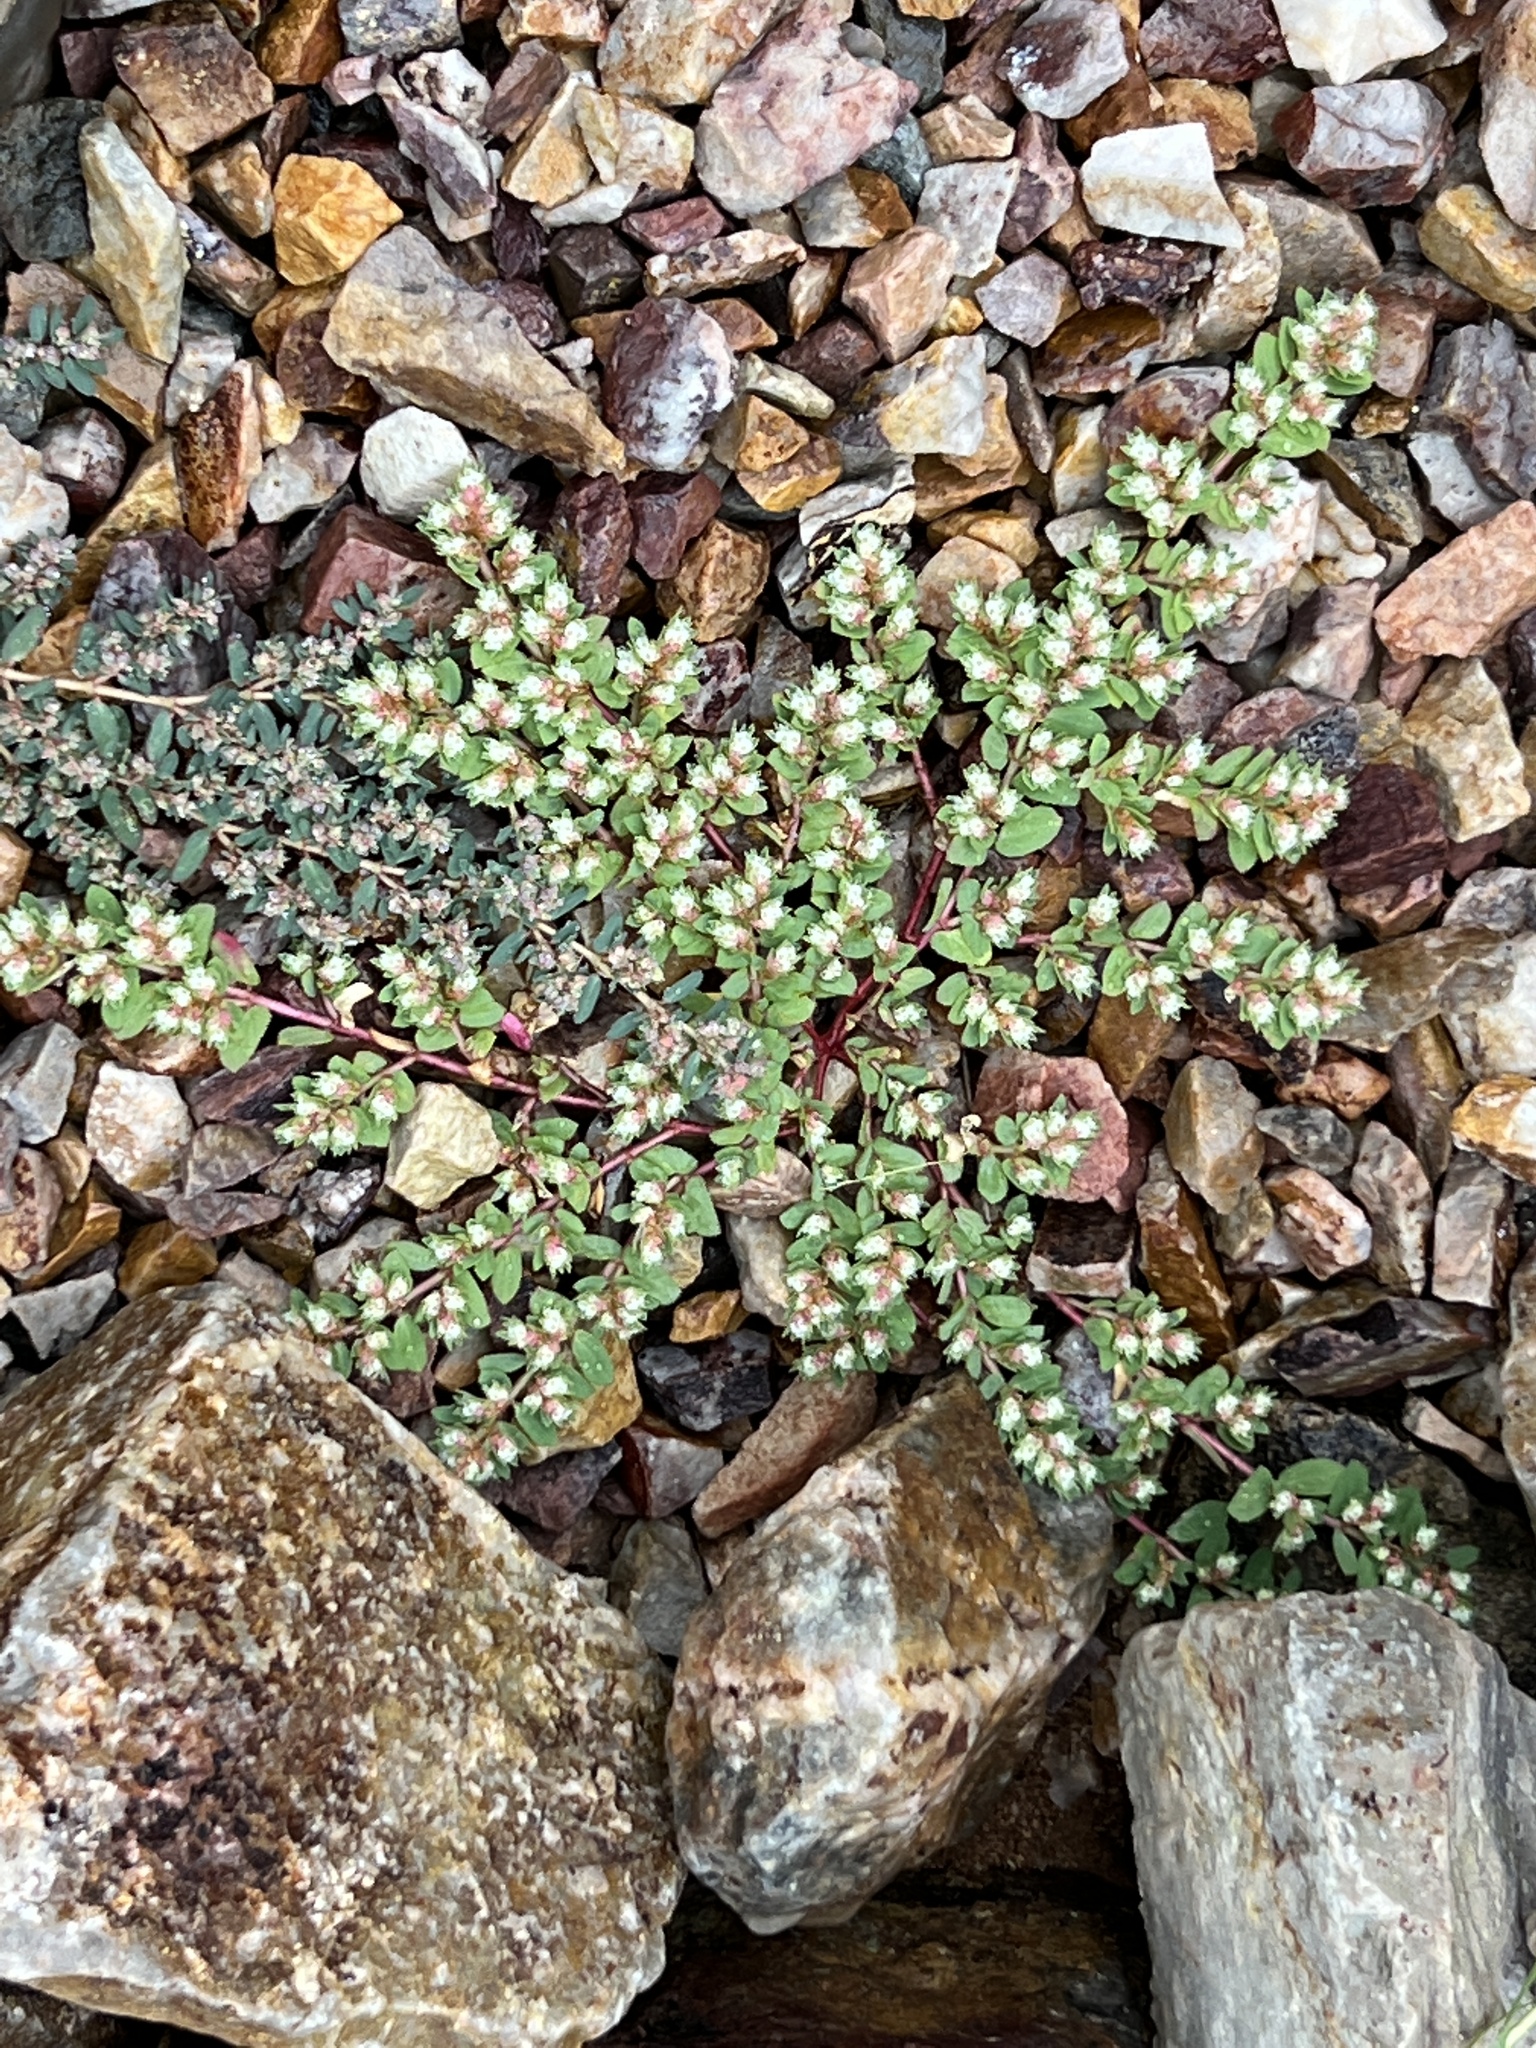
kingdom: Plantae
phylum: Tracheophyta
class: Magnoliopsida
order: Malpighiales
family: Euphorbiaceae
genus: Euphorbia
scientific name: Euphorbia indivisa
